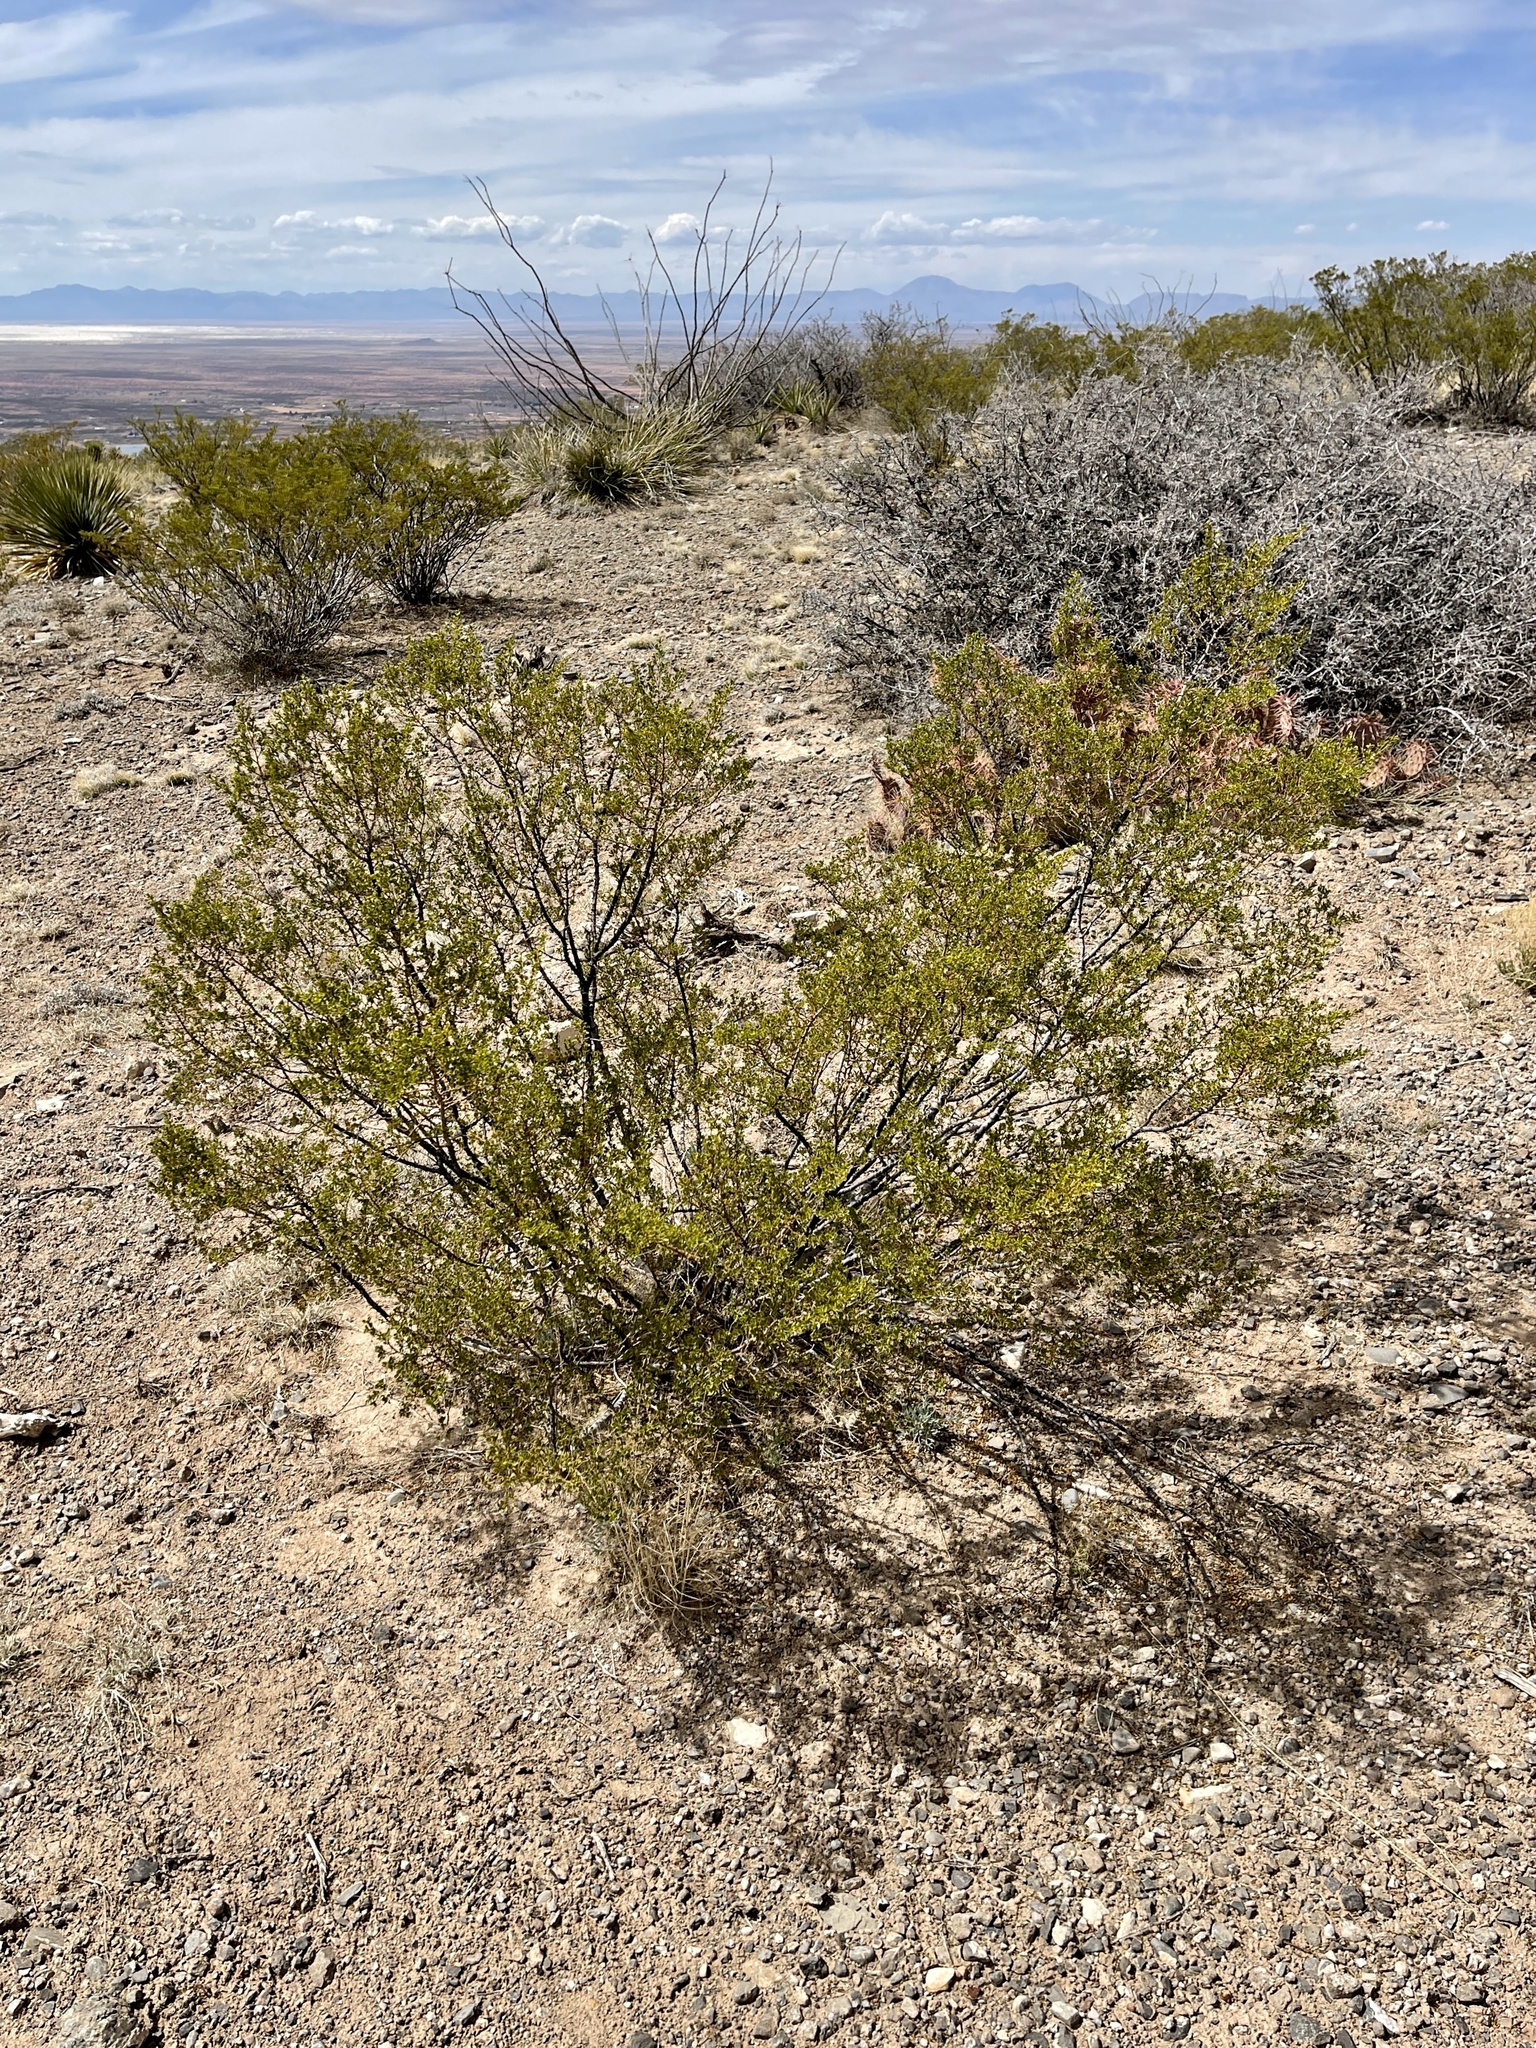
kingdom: Plantae
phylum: Tracheophyta
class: Magnoliopsida
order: Zygophyllales
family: Zygophyllaceae
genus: Larrea
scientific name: Larrea tridentata
